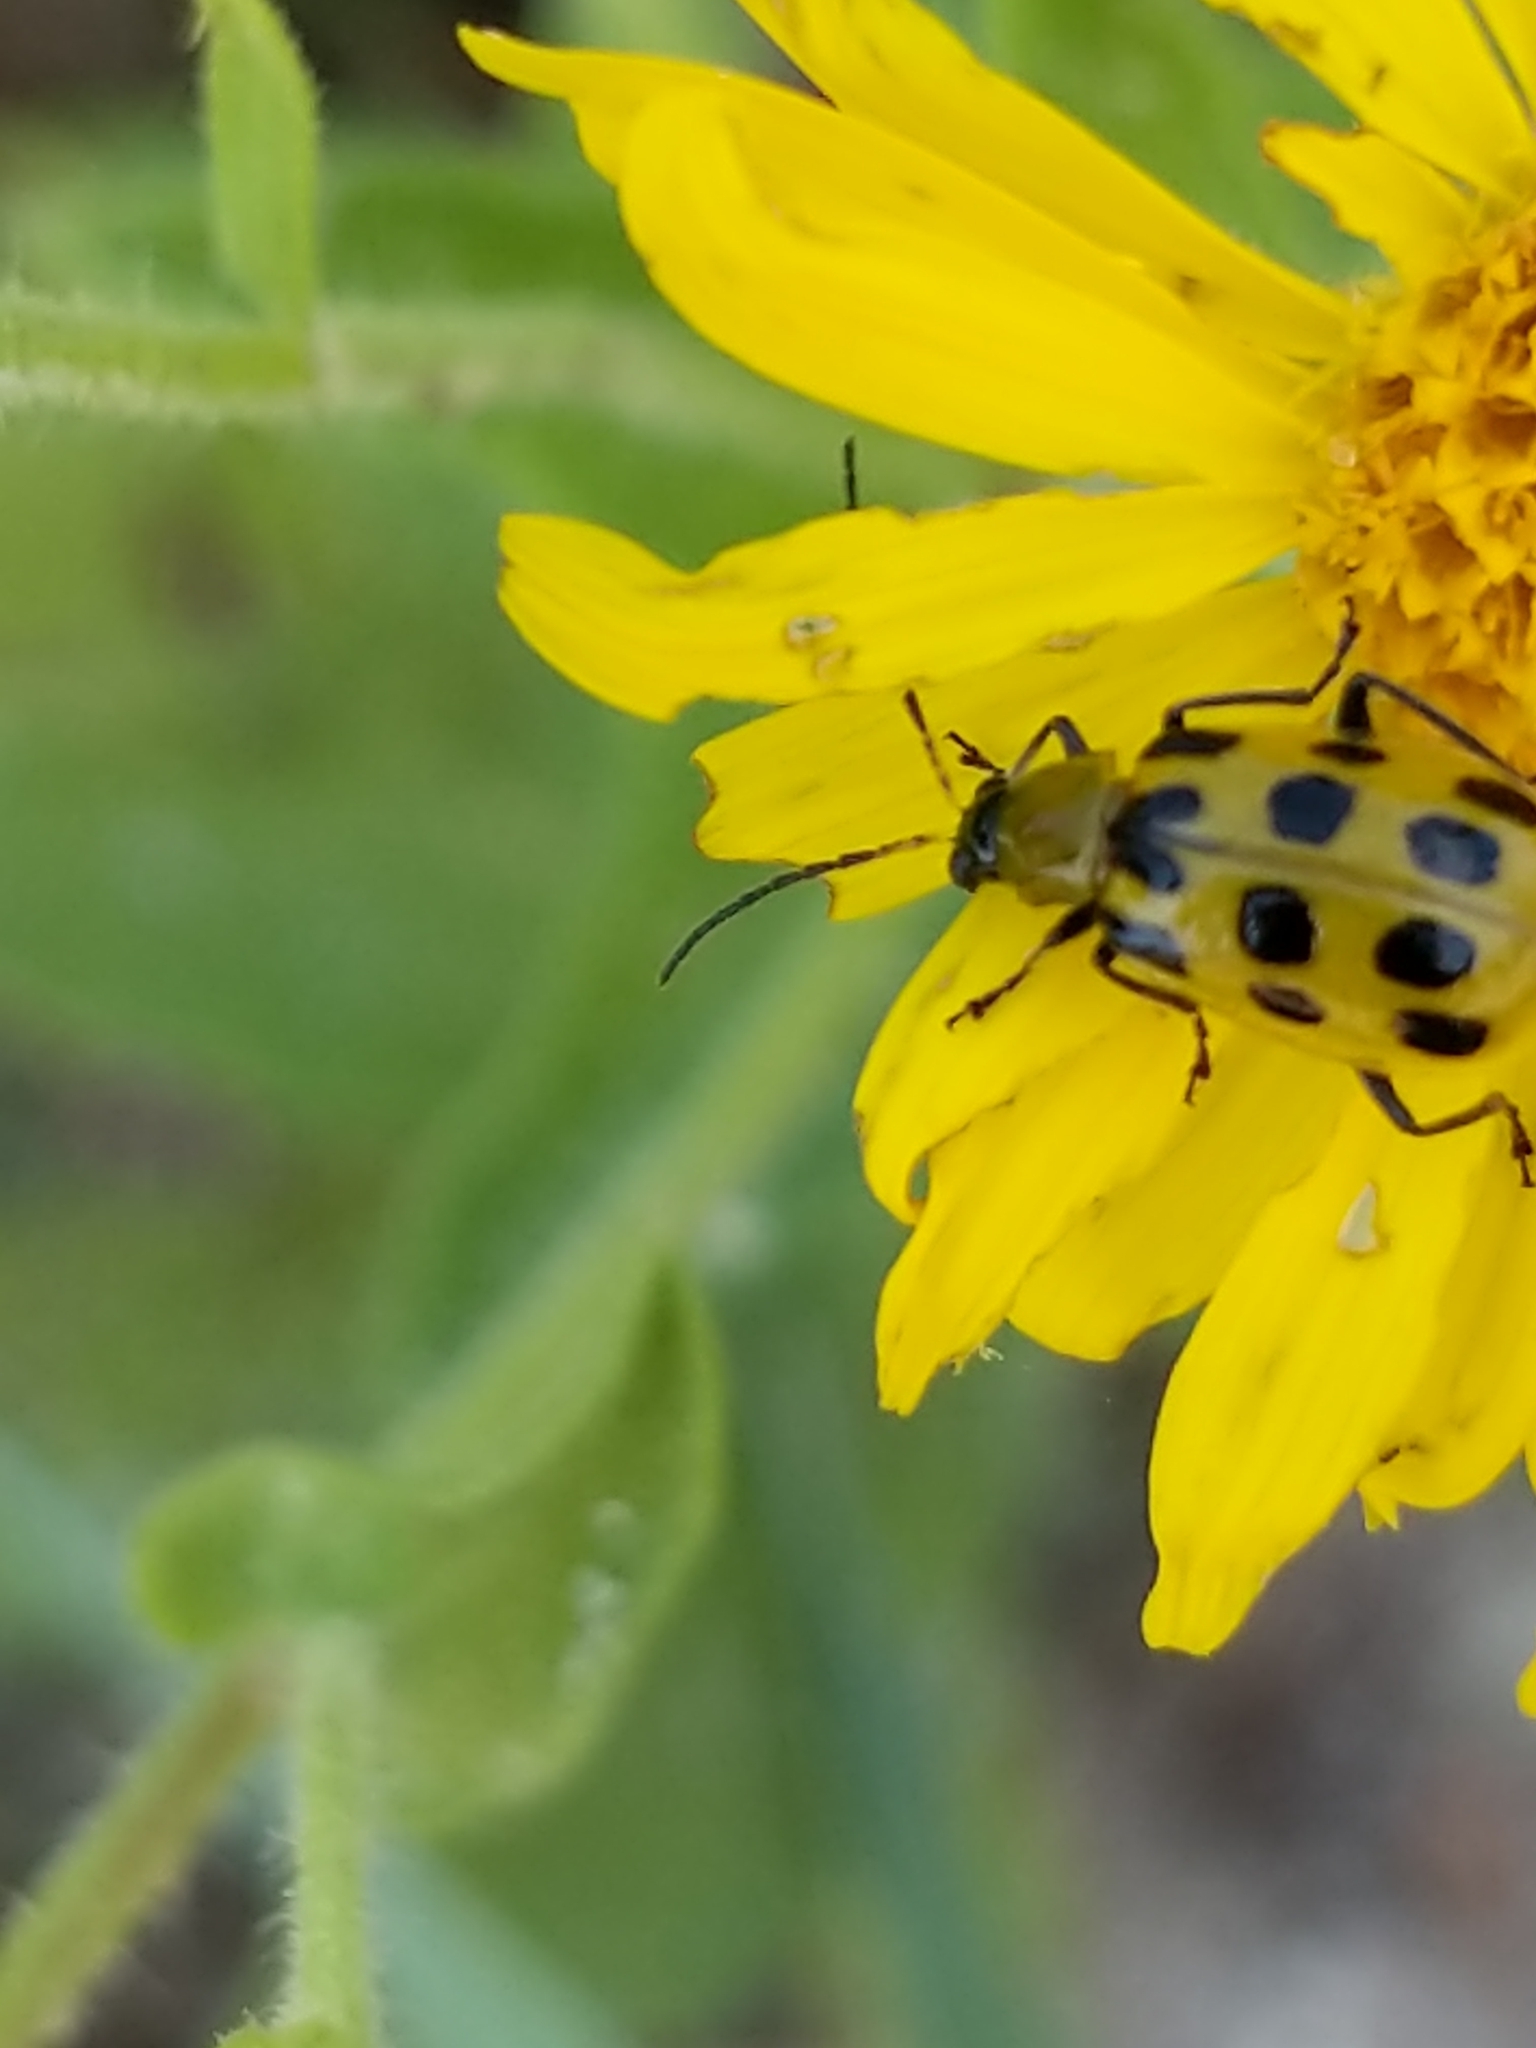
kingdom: Animalia
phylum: Arthropoda
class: Insecta
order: Coleoptera
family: Chrysomelidae
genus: Diabrotica
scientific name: Diabrotica undecimpunctata
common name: Spotted cucumber beetle
